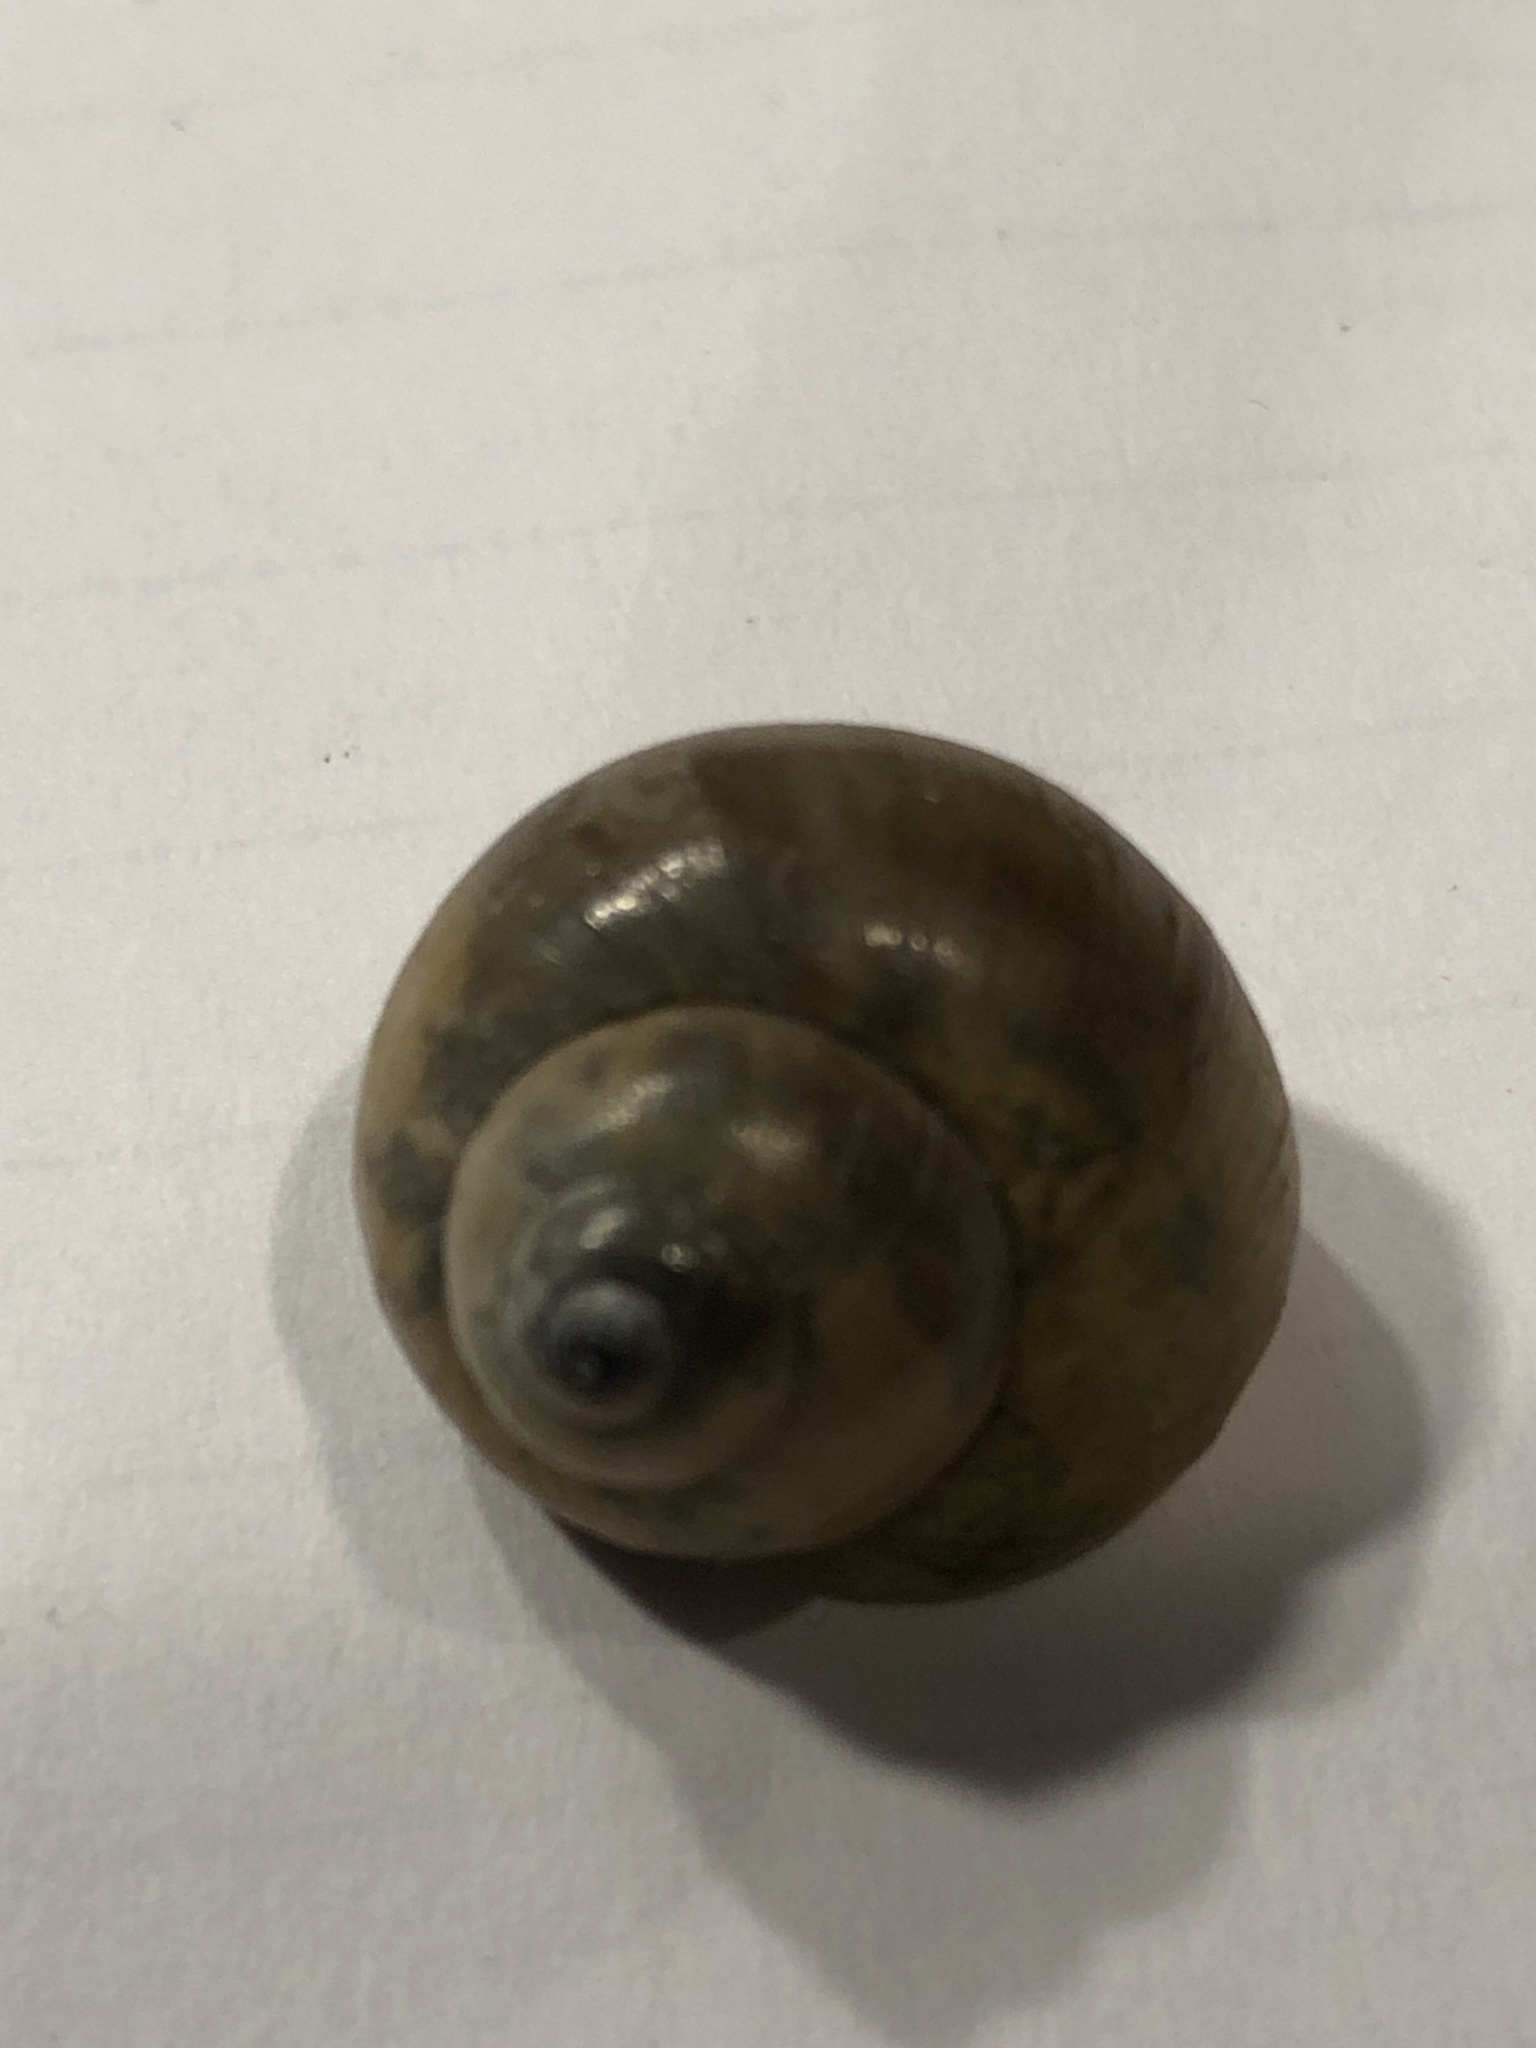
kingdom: Animalia
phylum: Mollusca
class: Gastropoda
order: Architaenioglossa
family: Viviparidae
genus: Cipangopaludina
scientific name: Cipangopaludina chinensis
